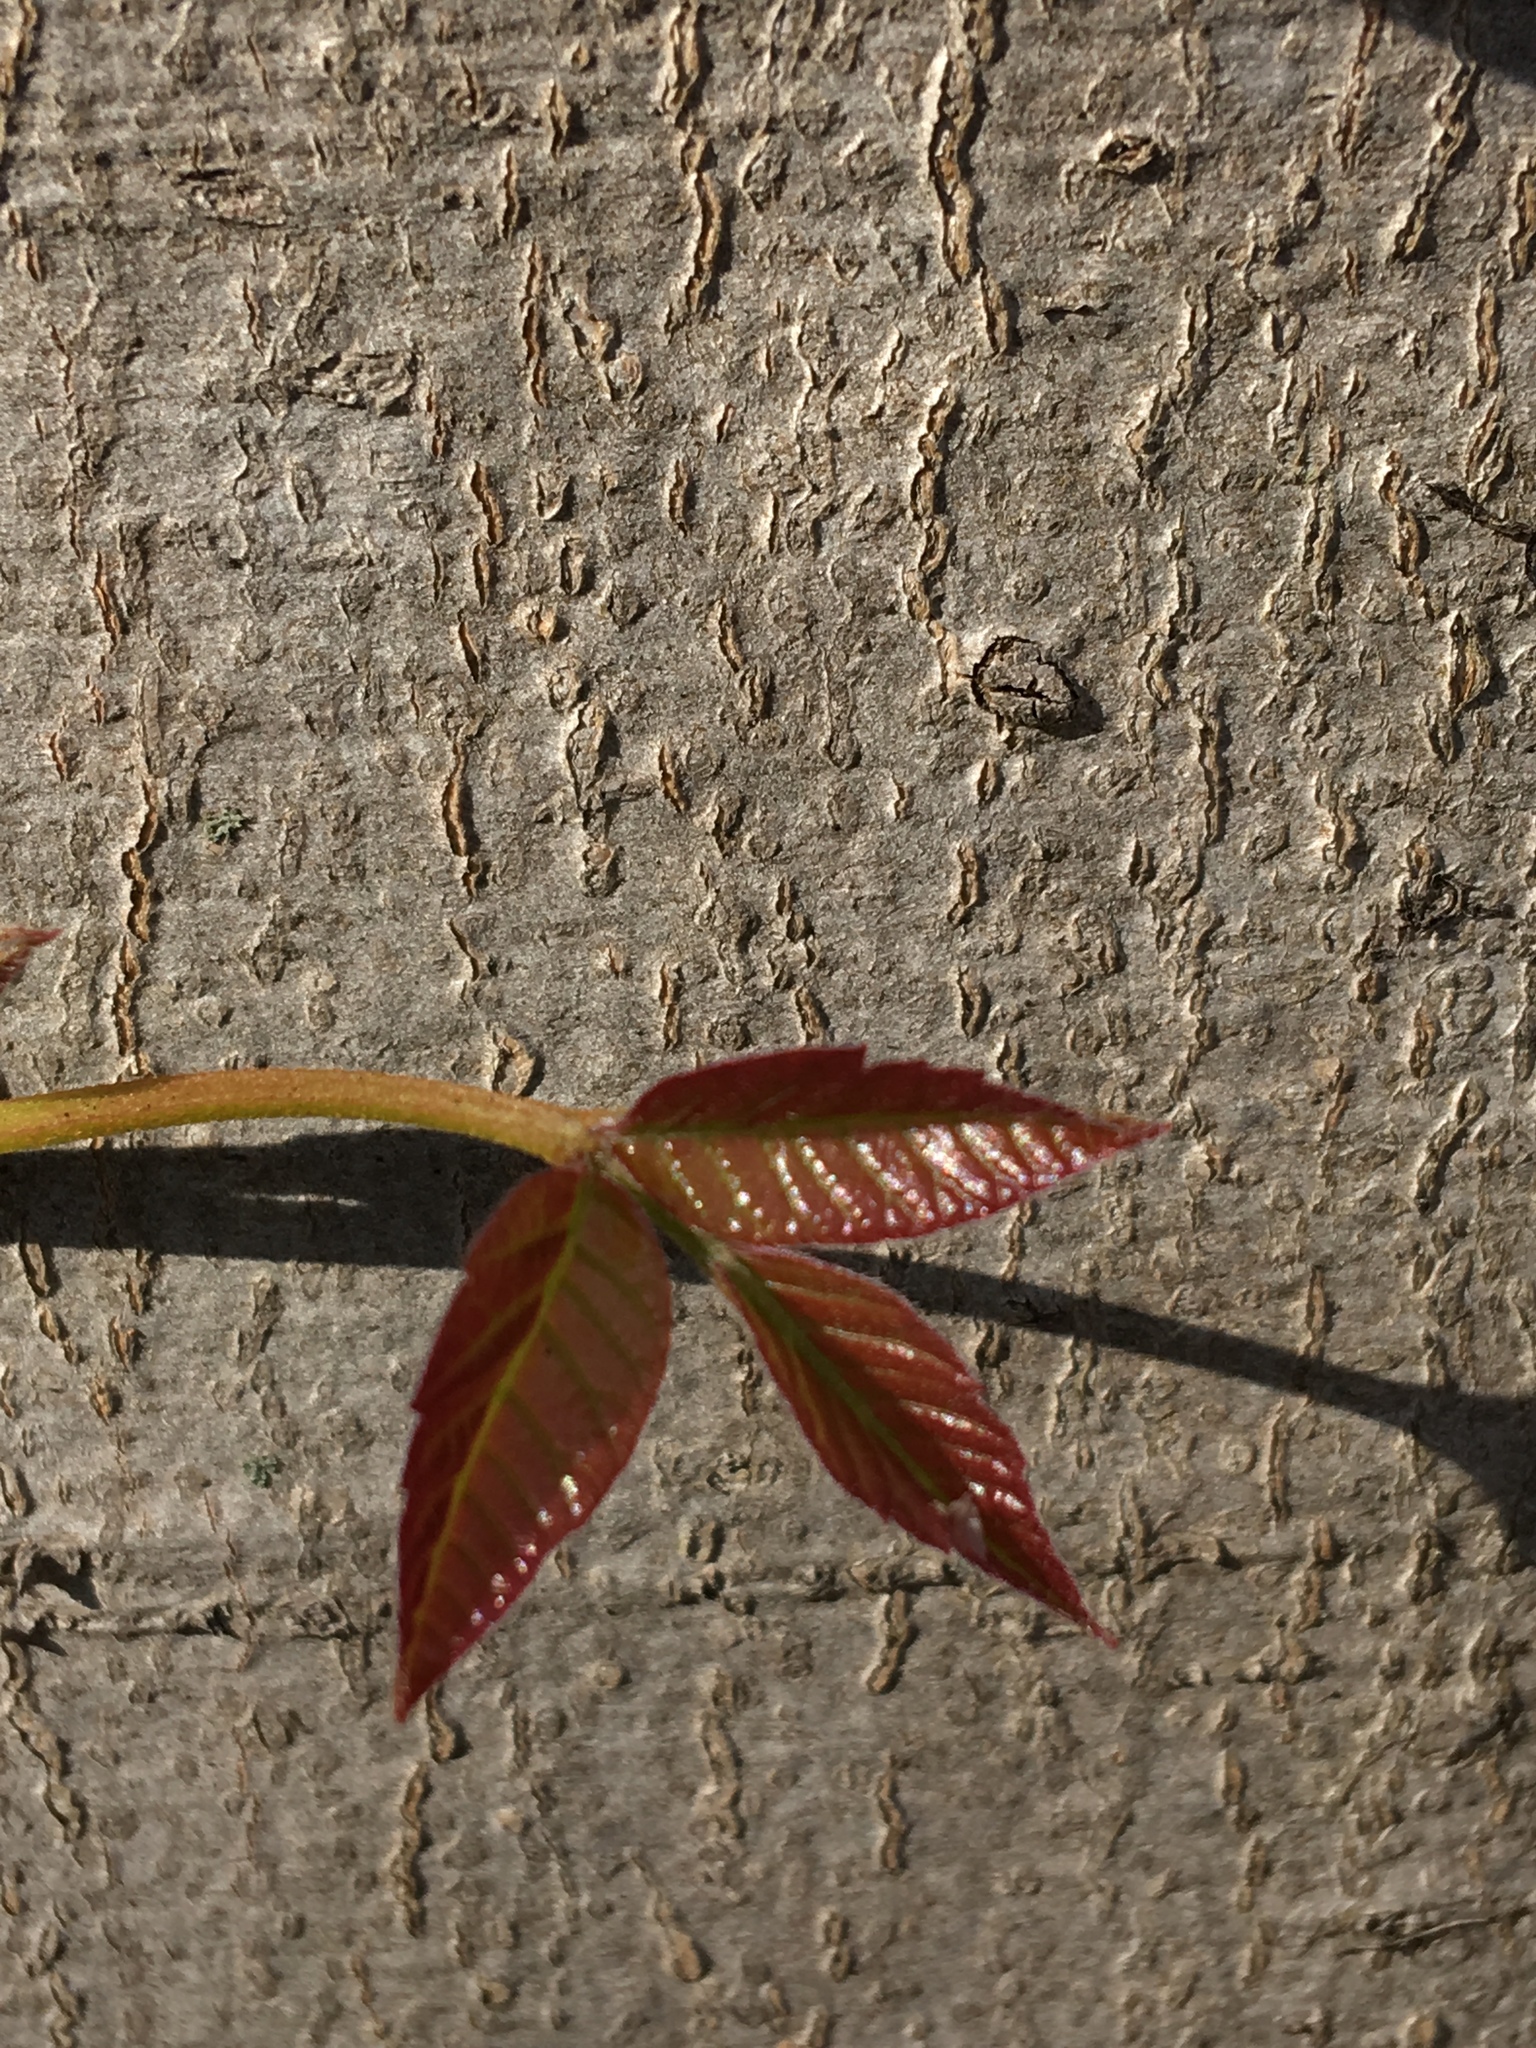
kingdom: Plantae
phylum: Tracheophyta
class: Magnoliopsida
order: Sapindales
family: Anacardiaceae
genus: Toxicodendron
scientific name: Toxicodendron radicans
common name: Poison ivy
